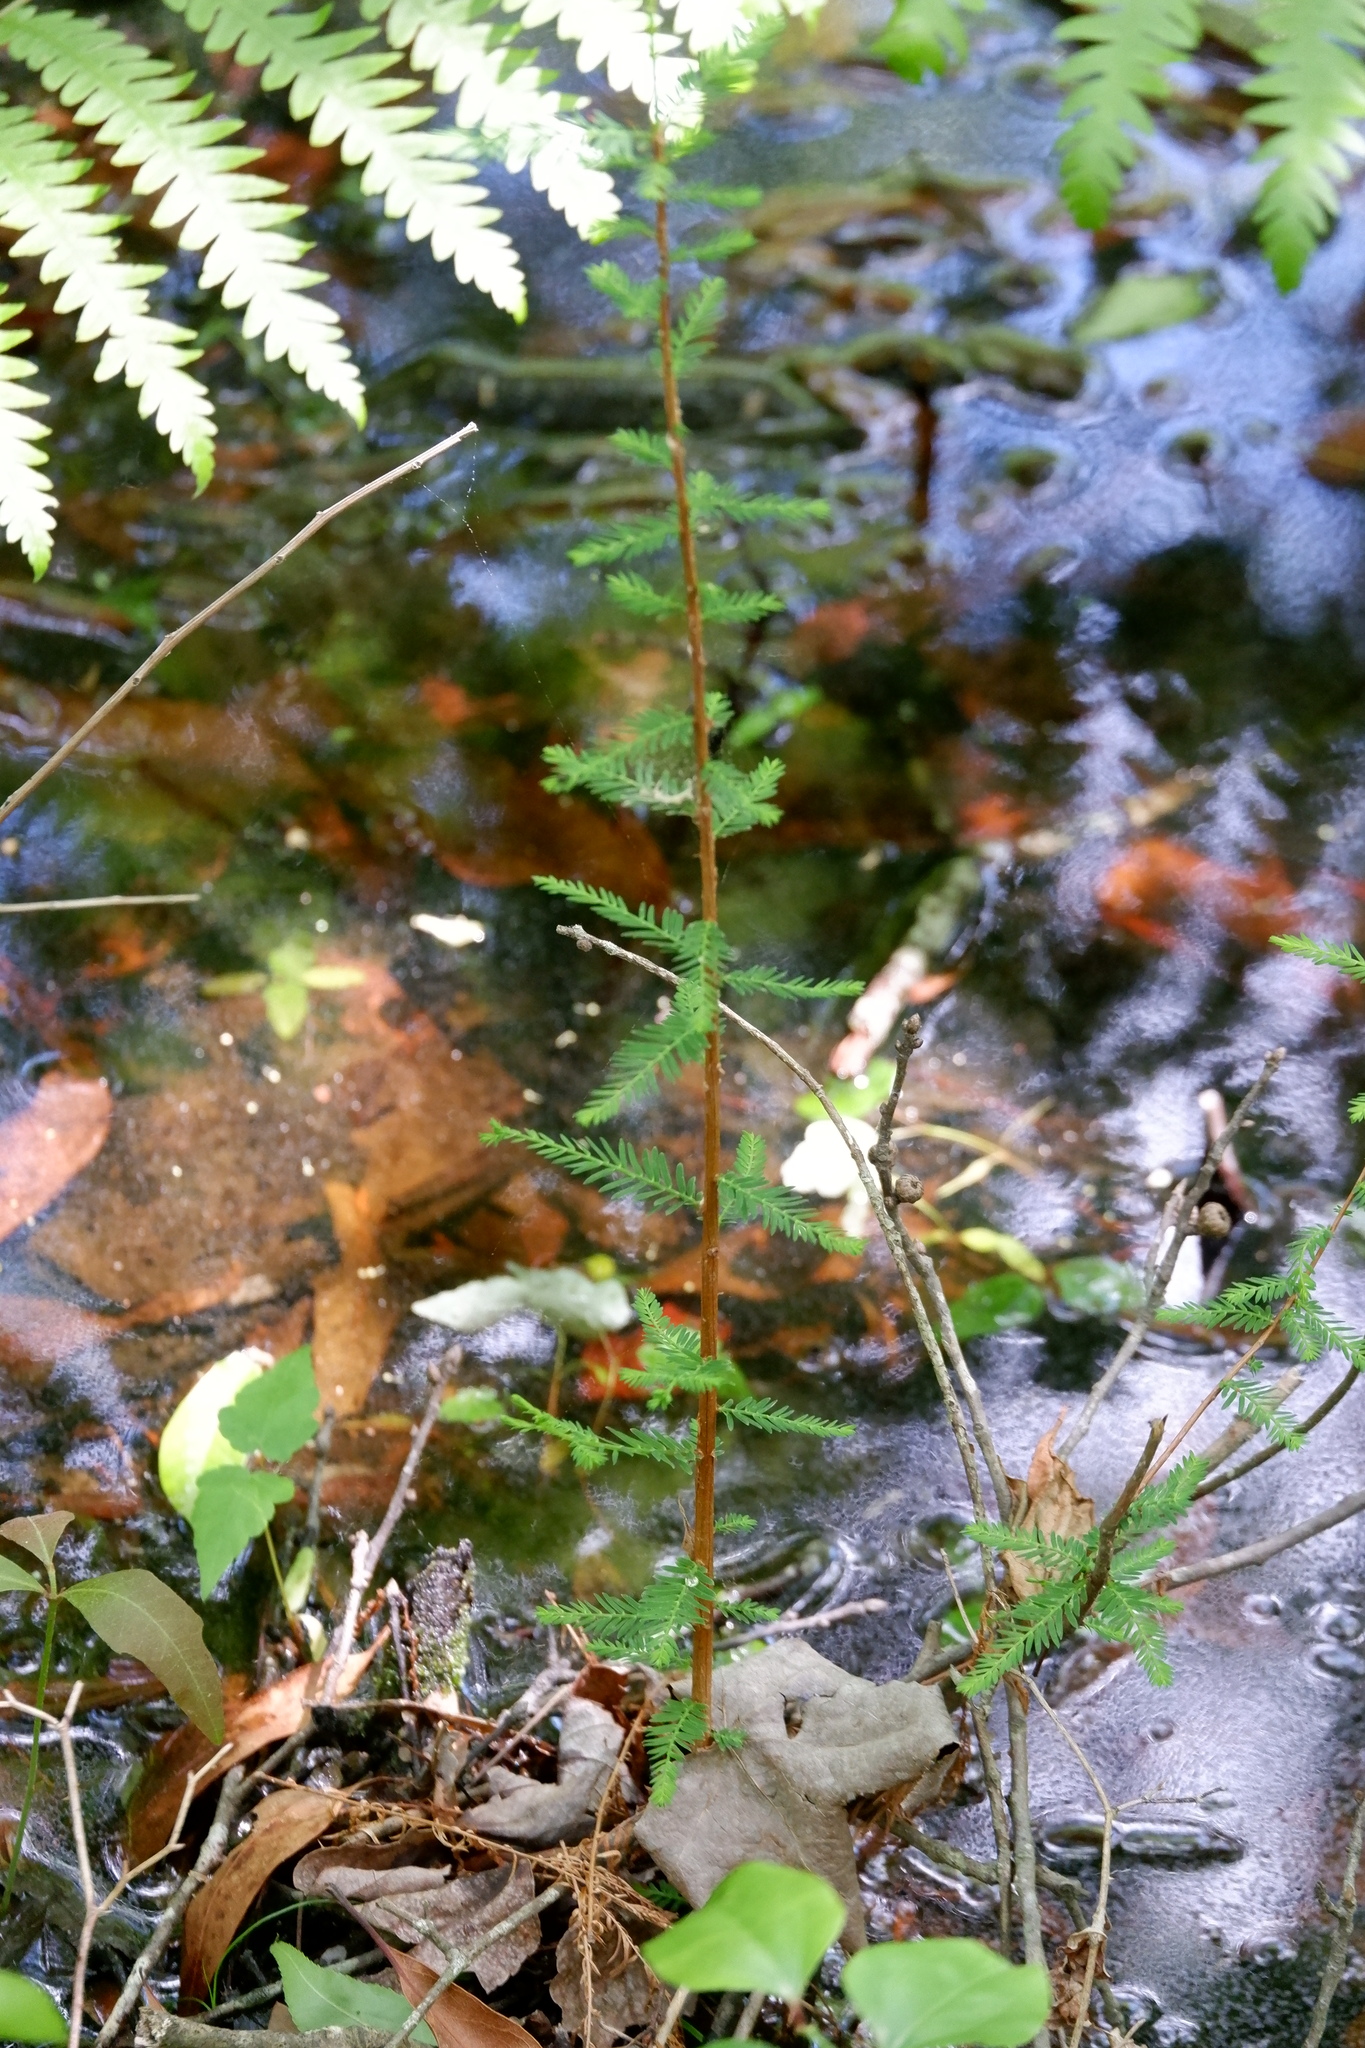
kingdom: Plantae
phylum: Tracheophyta
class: Pinopsida
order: Pinales
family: Cupressaceae
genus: Taxodium
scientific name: Taxodium distichum
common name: Bald cypress
